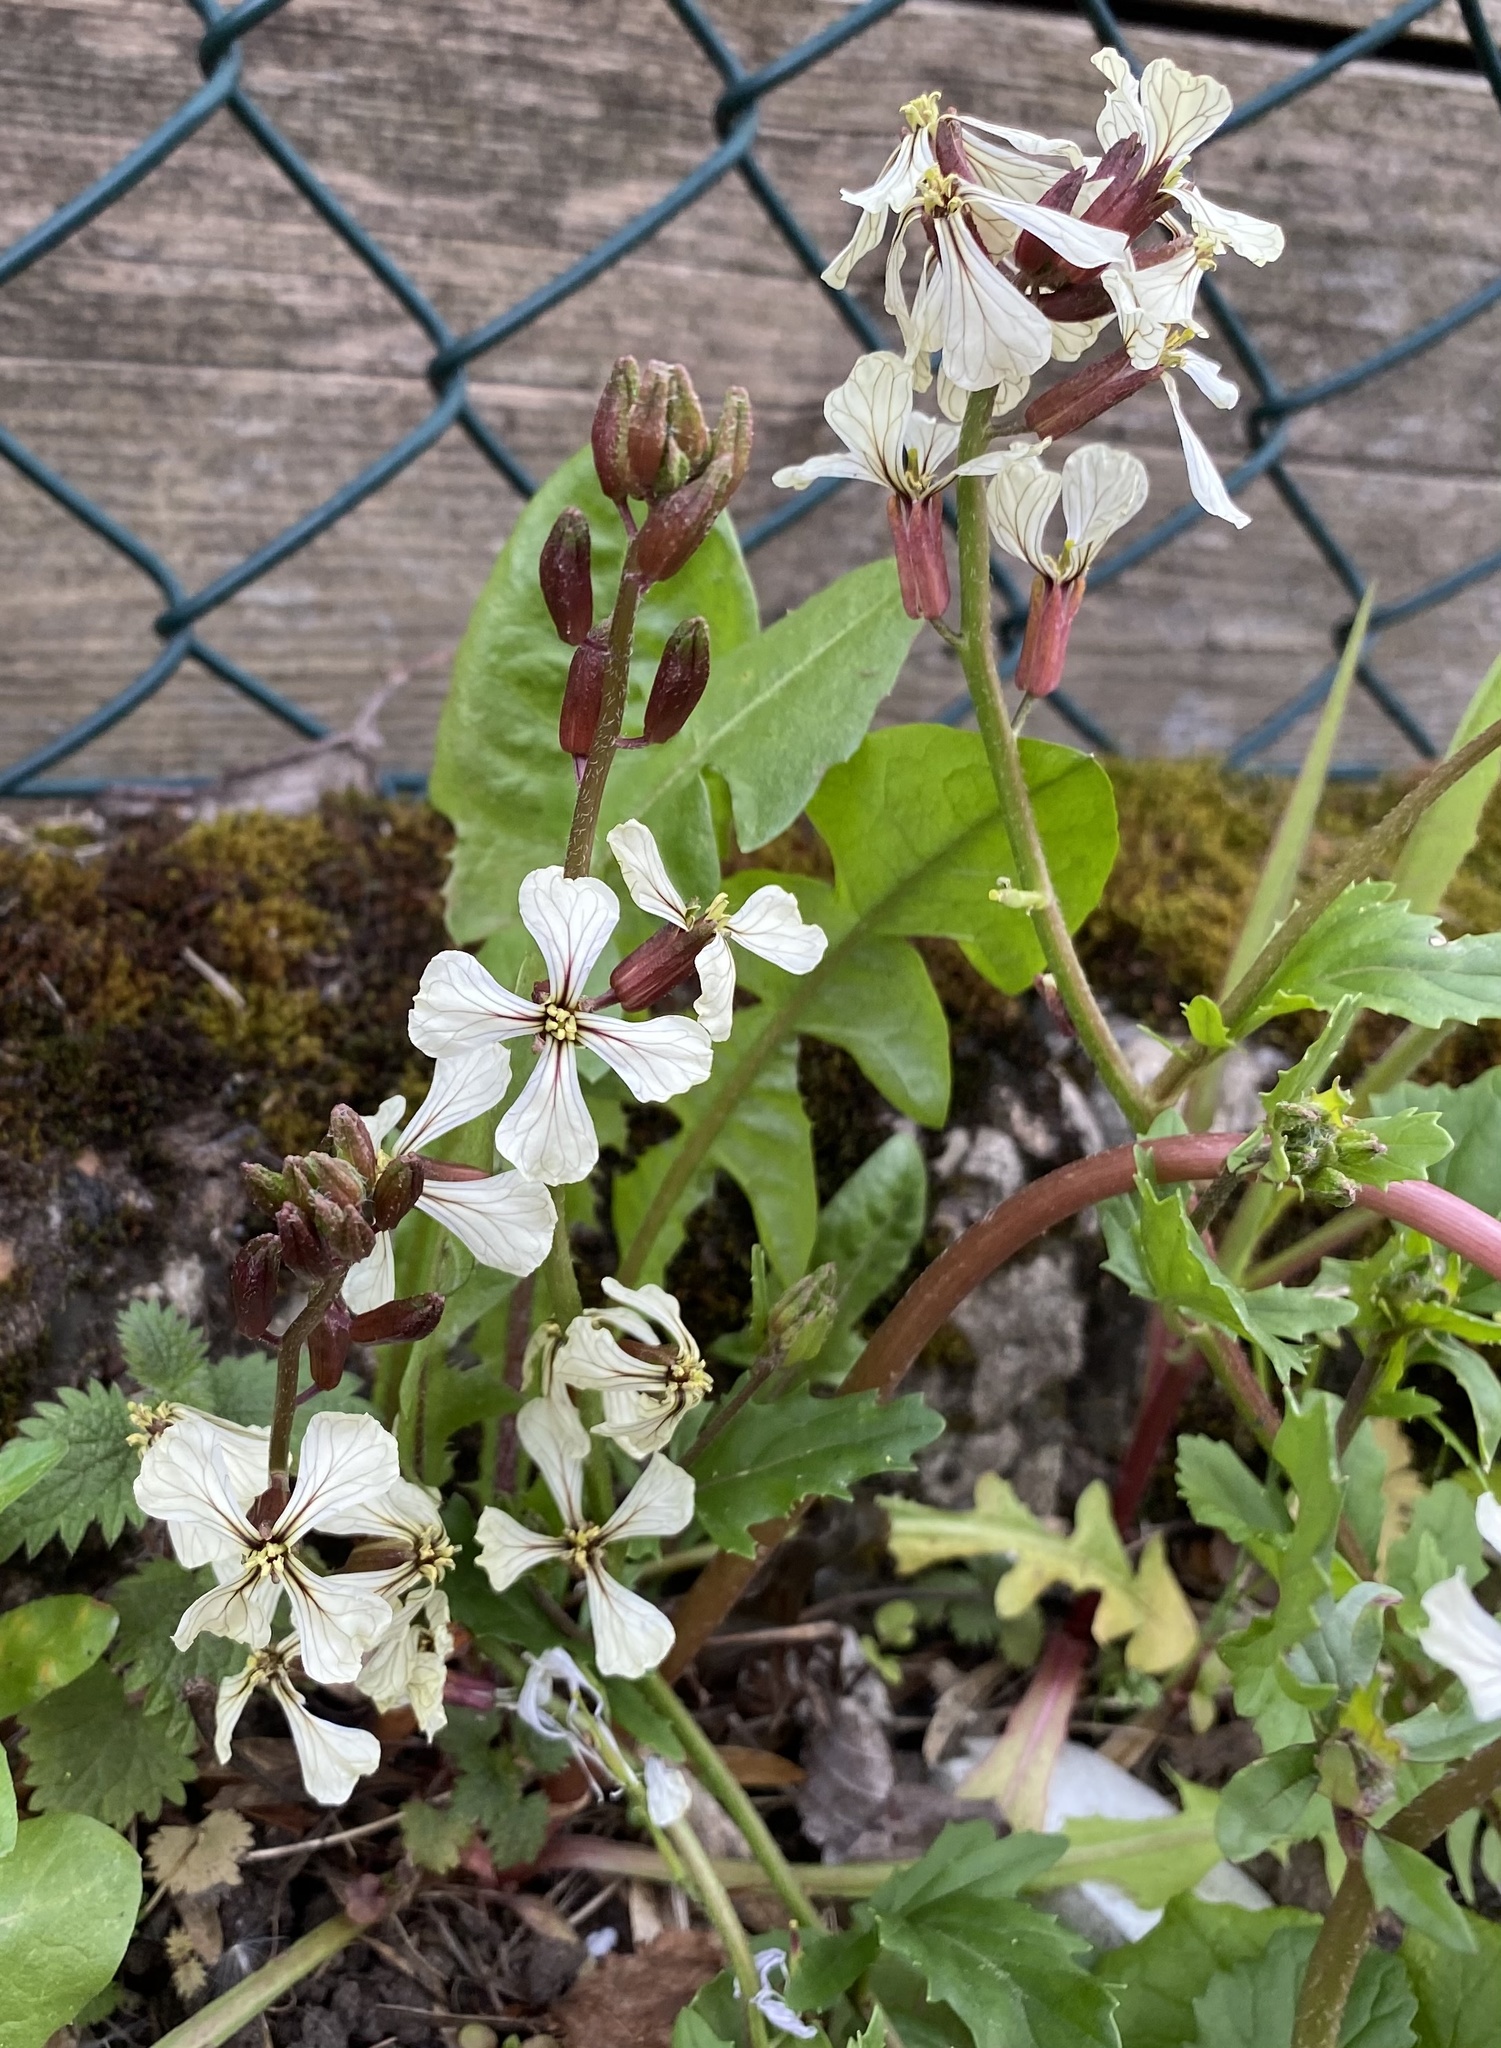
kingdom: Plantae
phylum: Tracheophyta
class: Magnoliopsida
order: Brassicales
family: Brassicaceae
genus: Eruca
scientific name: Eruca vesicaria
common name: Garden rocket
